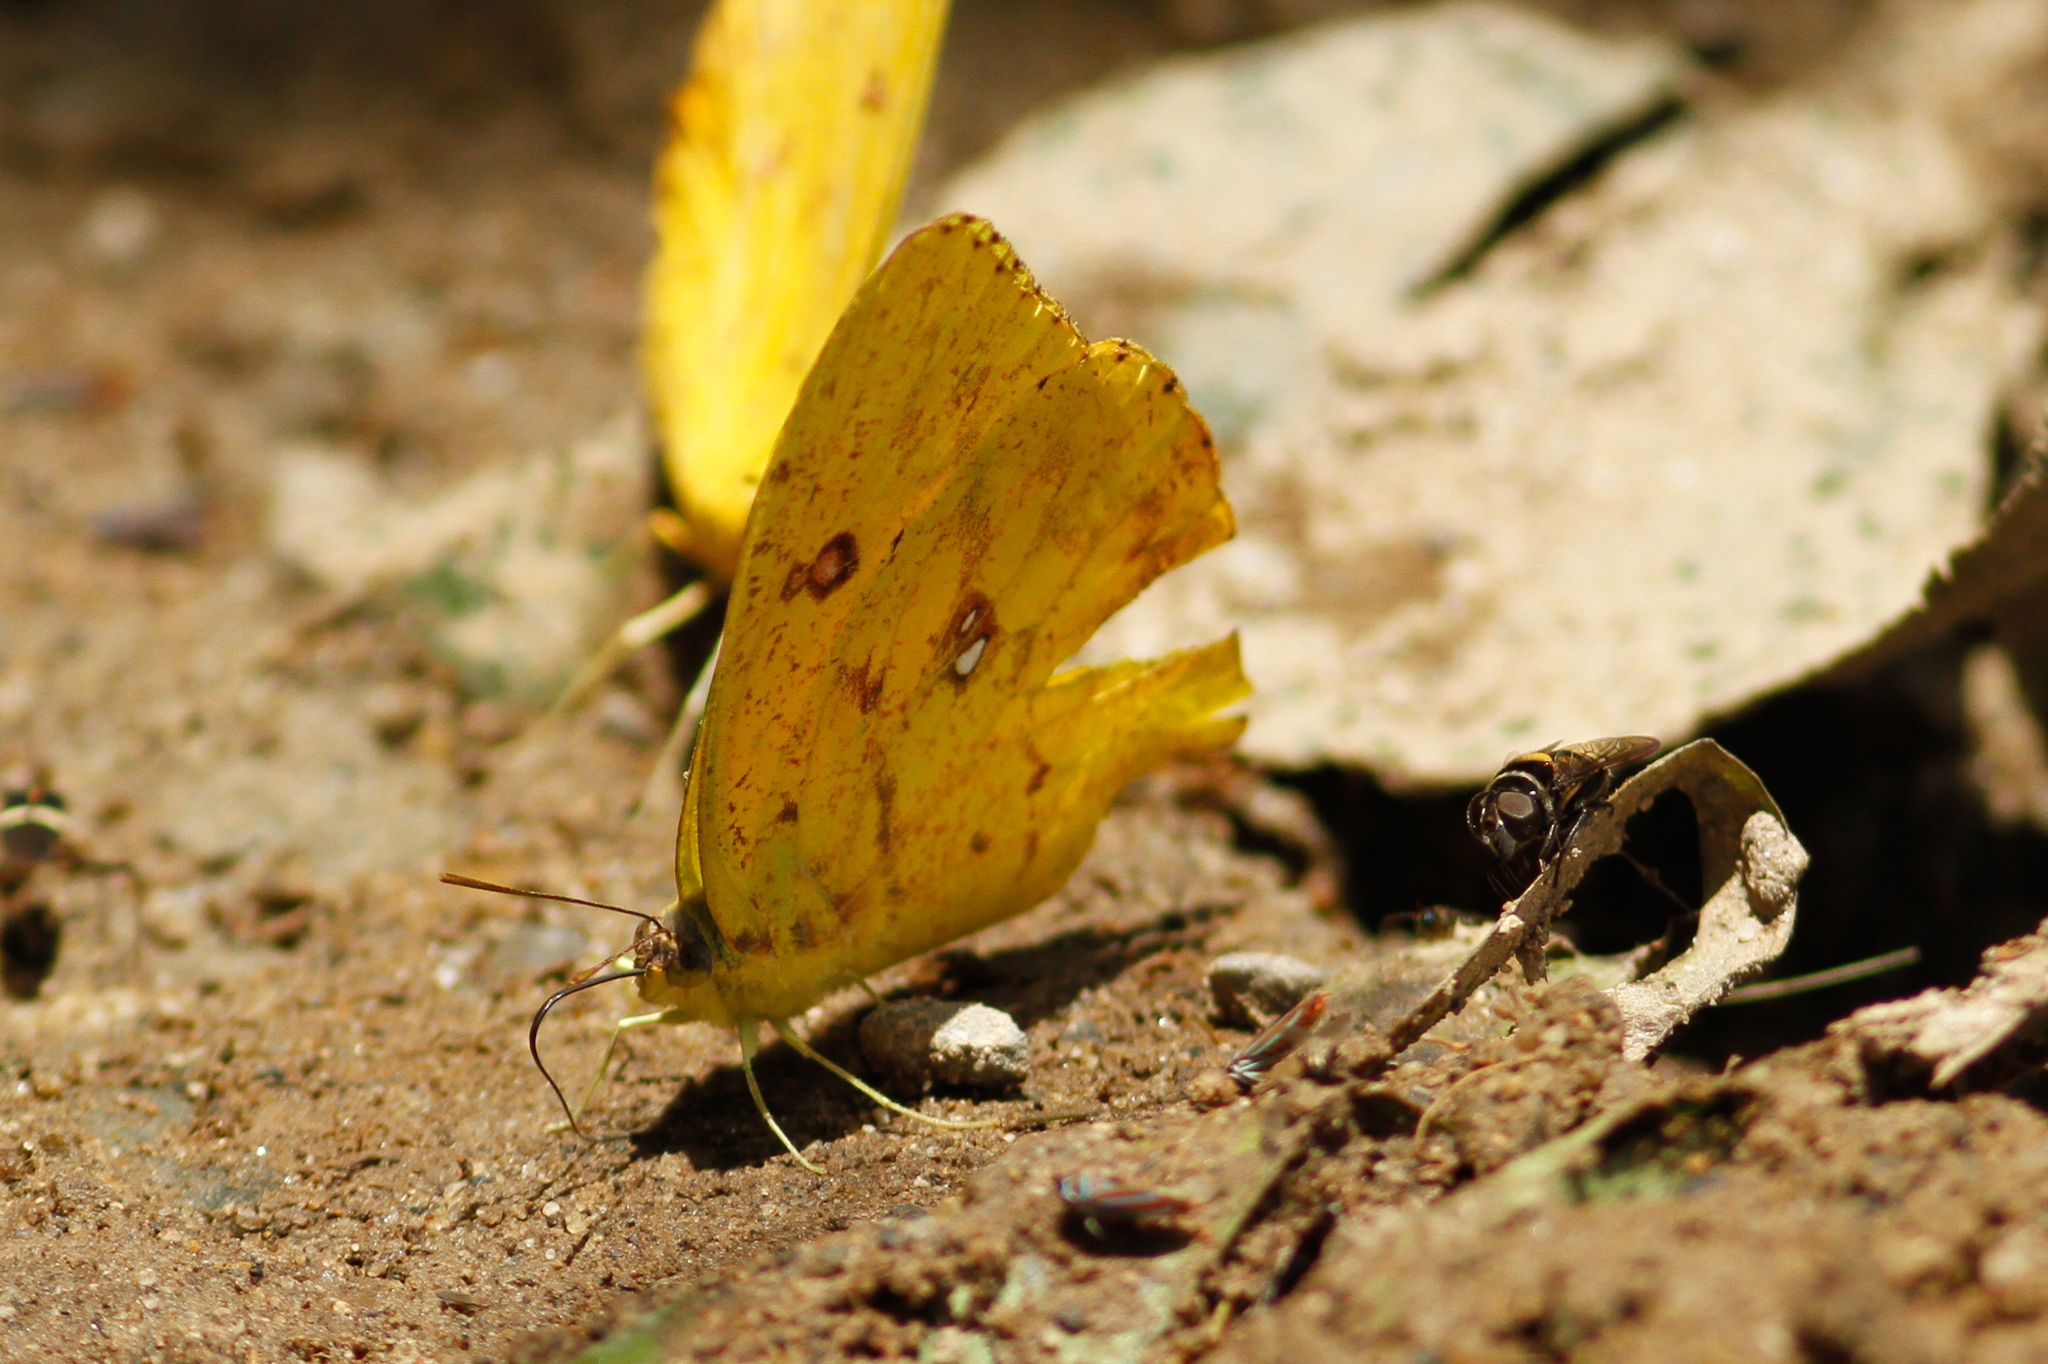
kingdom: Animalia
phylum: Arthropoda
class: Insecta
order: Lepidoptera
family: Pieridae
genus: Phoebis
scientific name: Phoebis argante
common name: Apricot sulphur
